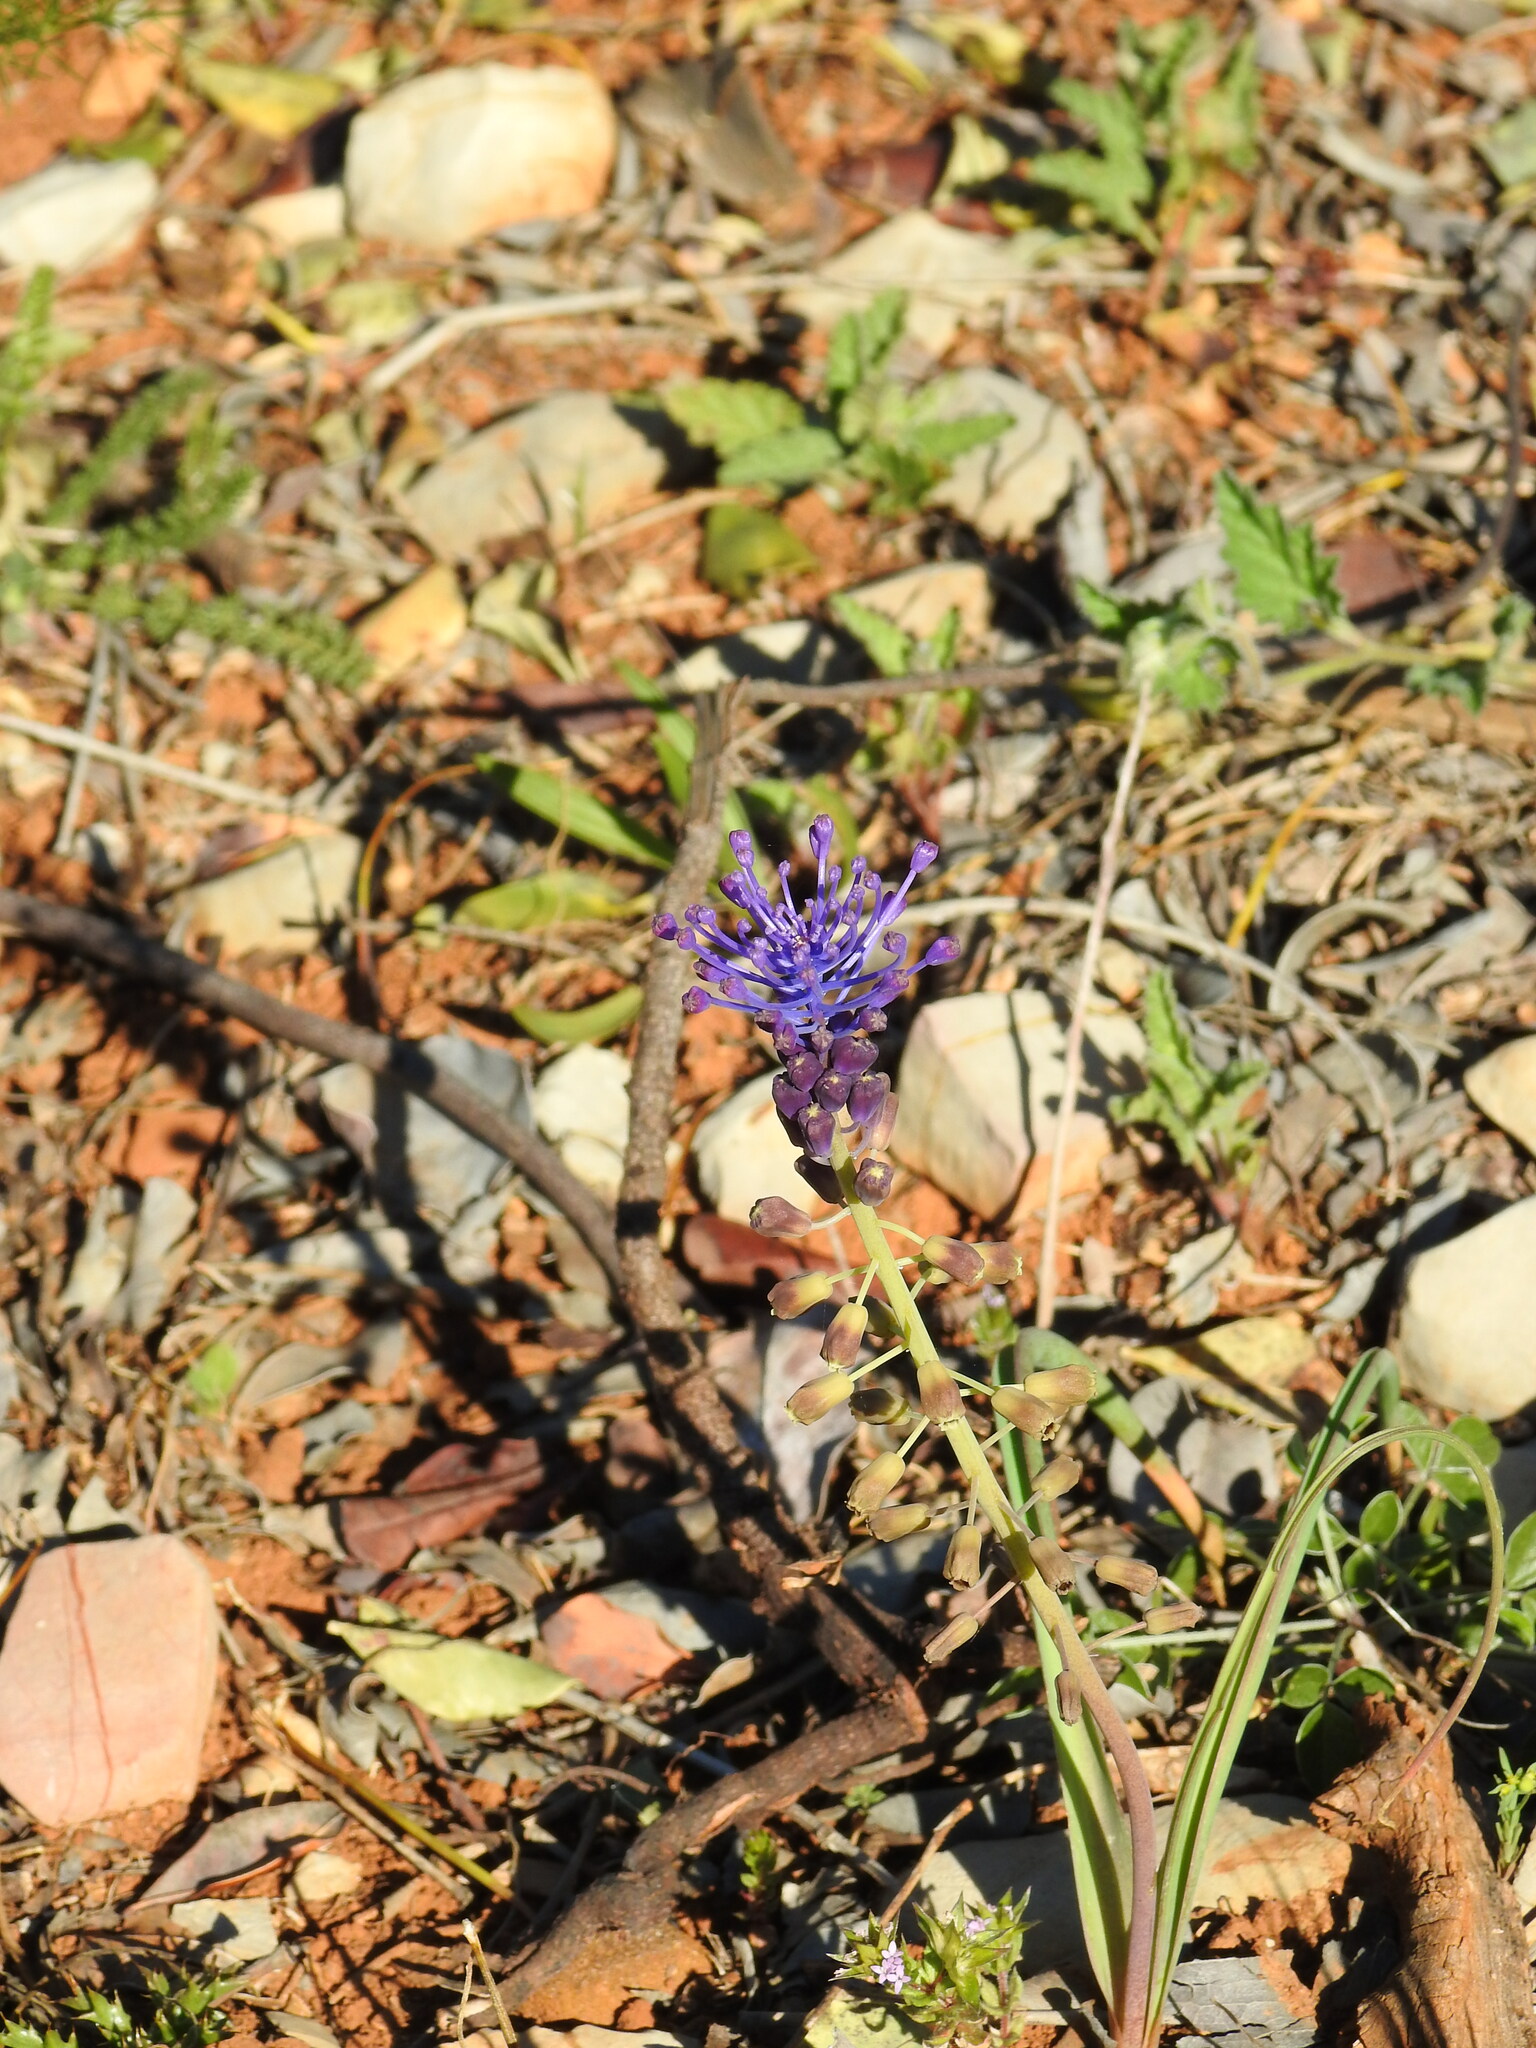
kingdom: Plantae
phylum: Tracheophyta
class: Liliopsida
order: Asparagales
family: Asparagaceae
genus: Muscari
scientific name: Muscari comosum
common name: Tassel hyacinth
